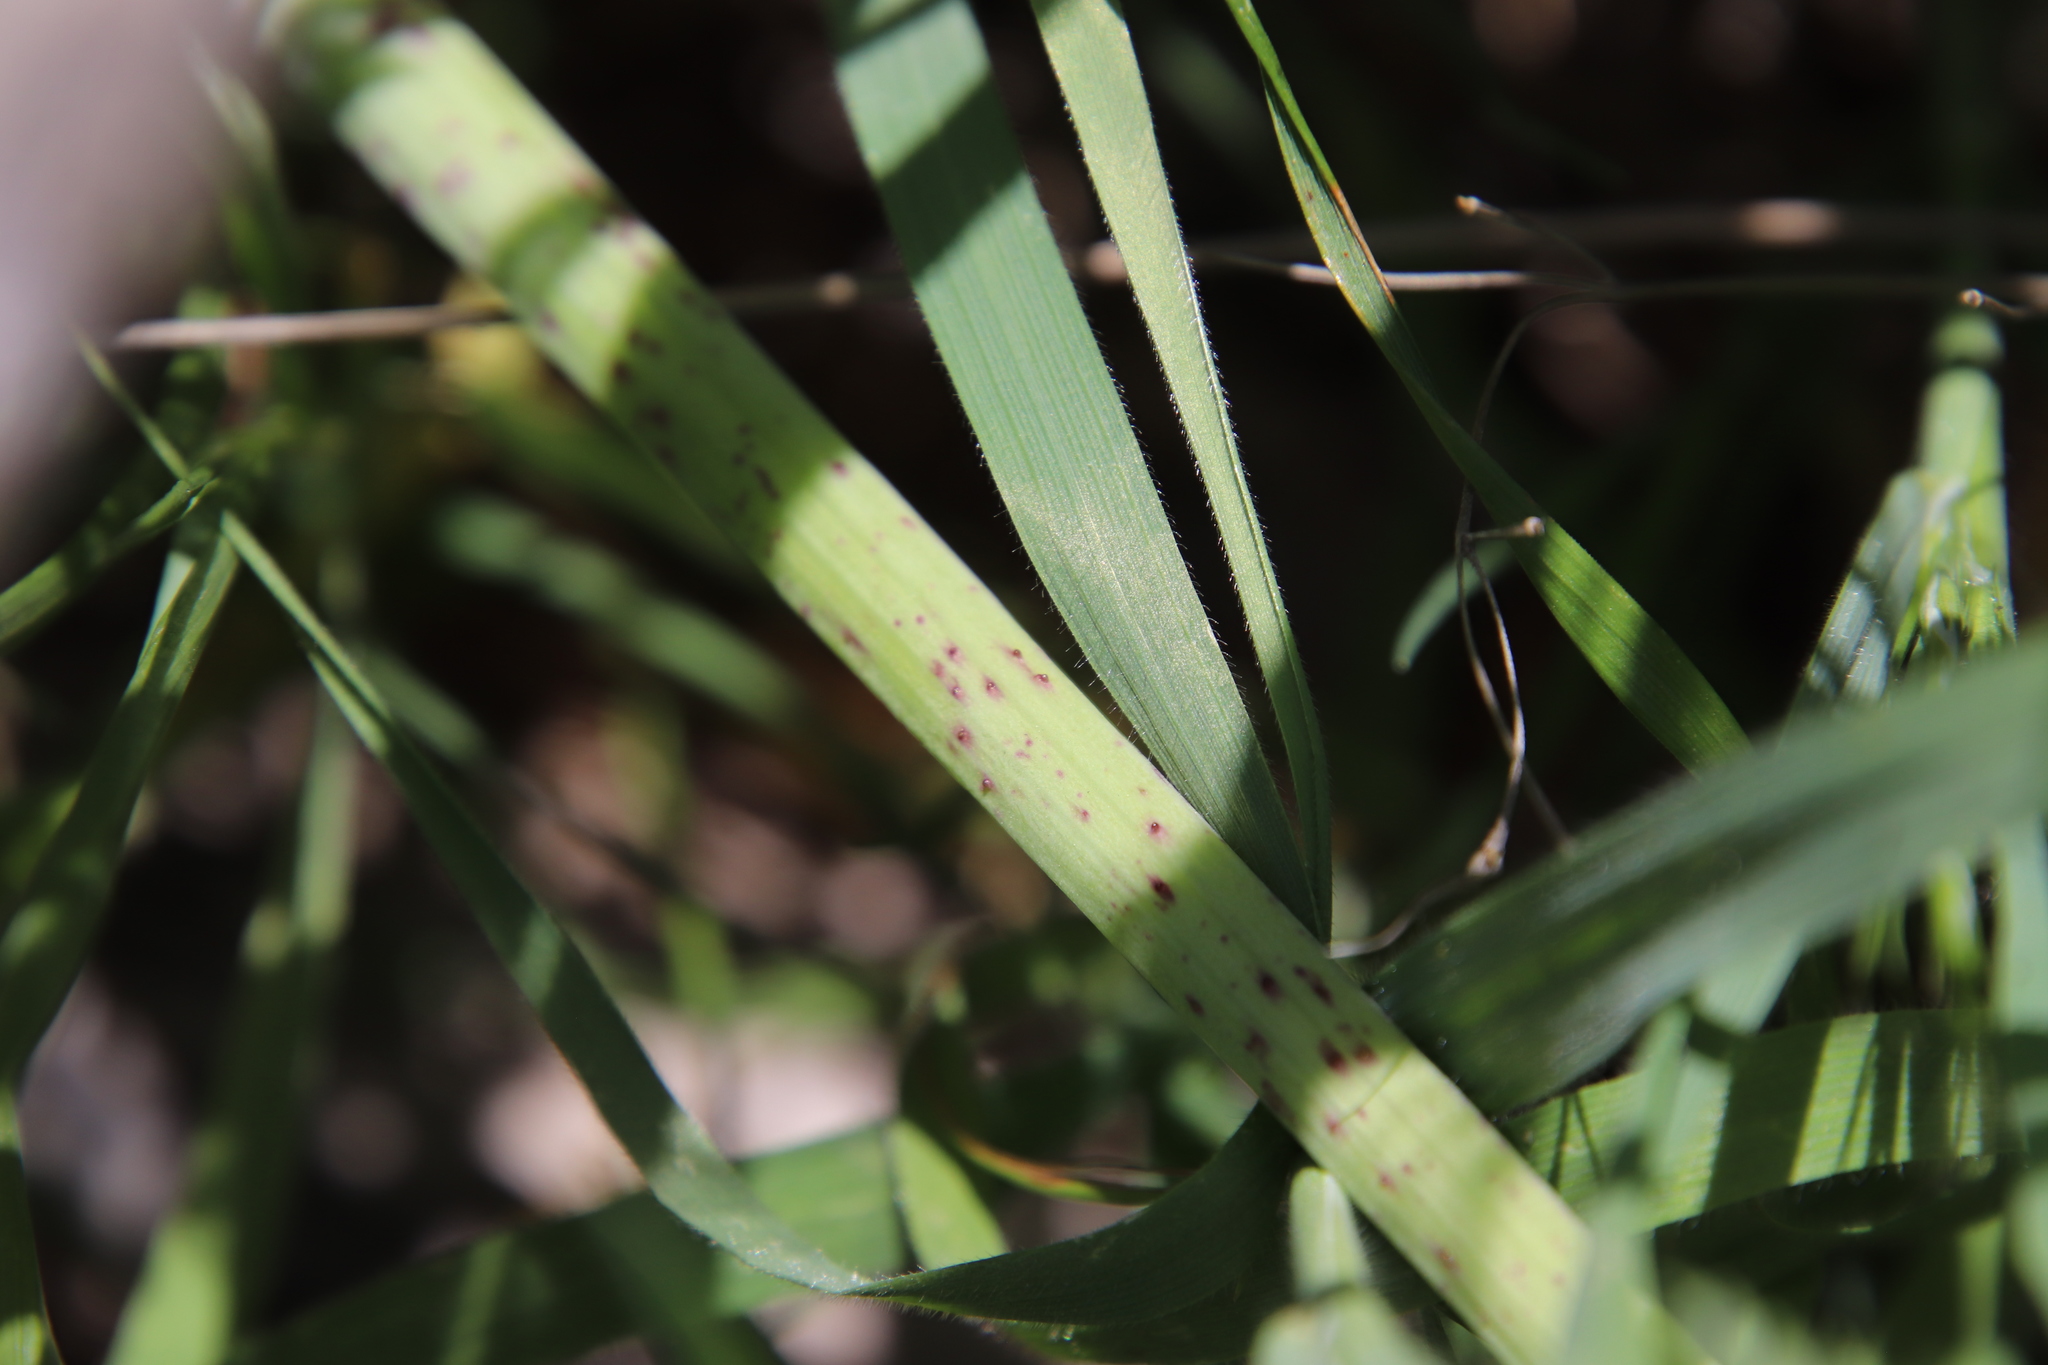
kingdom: Plantae
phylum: Tracheophyta
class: Magnoliopsida
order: Apiales
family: Apiaceae
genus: Conium
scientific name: Conium maculatum
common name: Hemlock
